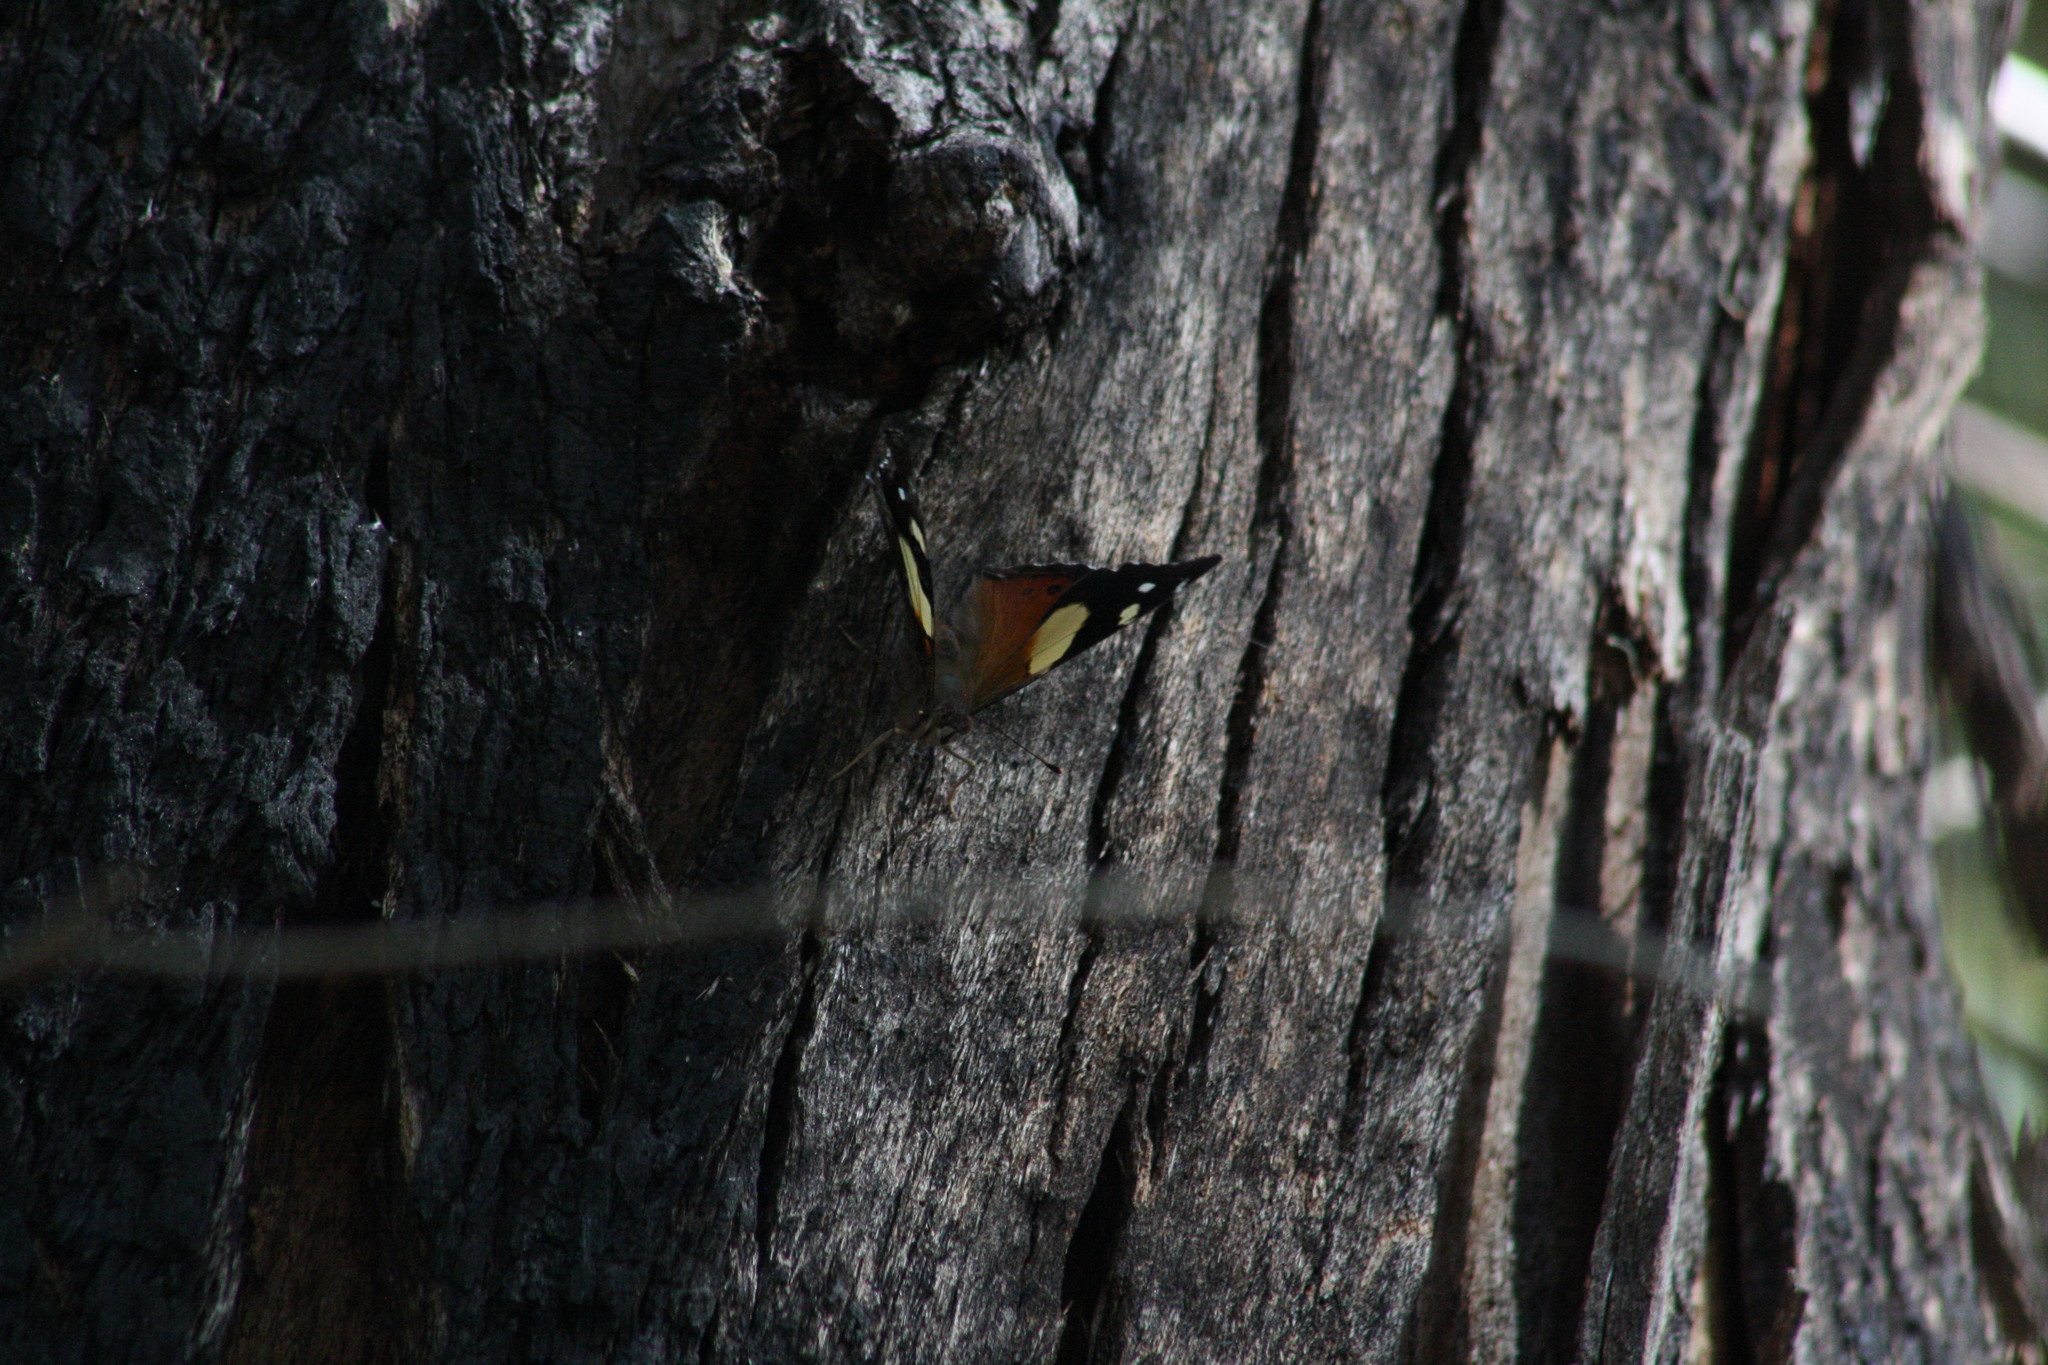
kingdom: Animalia
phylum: Arthropoda
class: Insecta
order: Lepidoptera
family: Nymphalidae
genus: Vanessa
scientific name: Vanessa itea
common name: Yellow admiral
